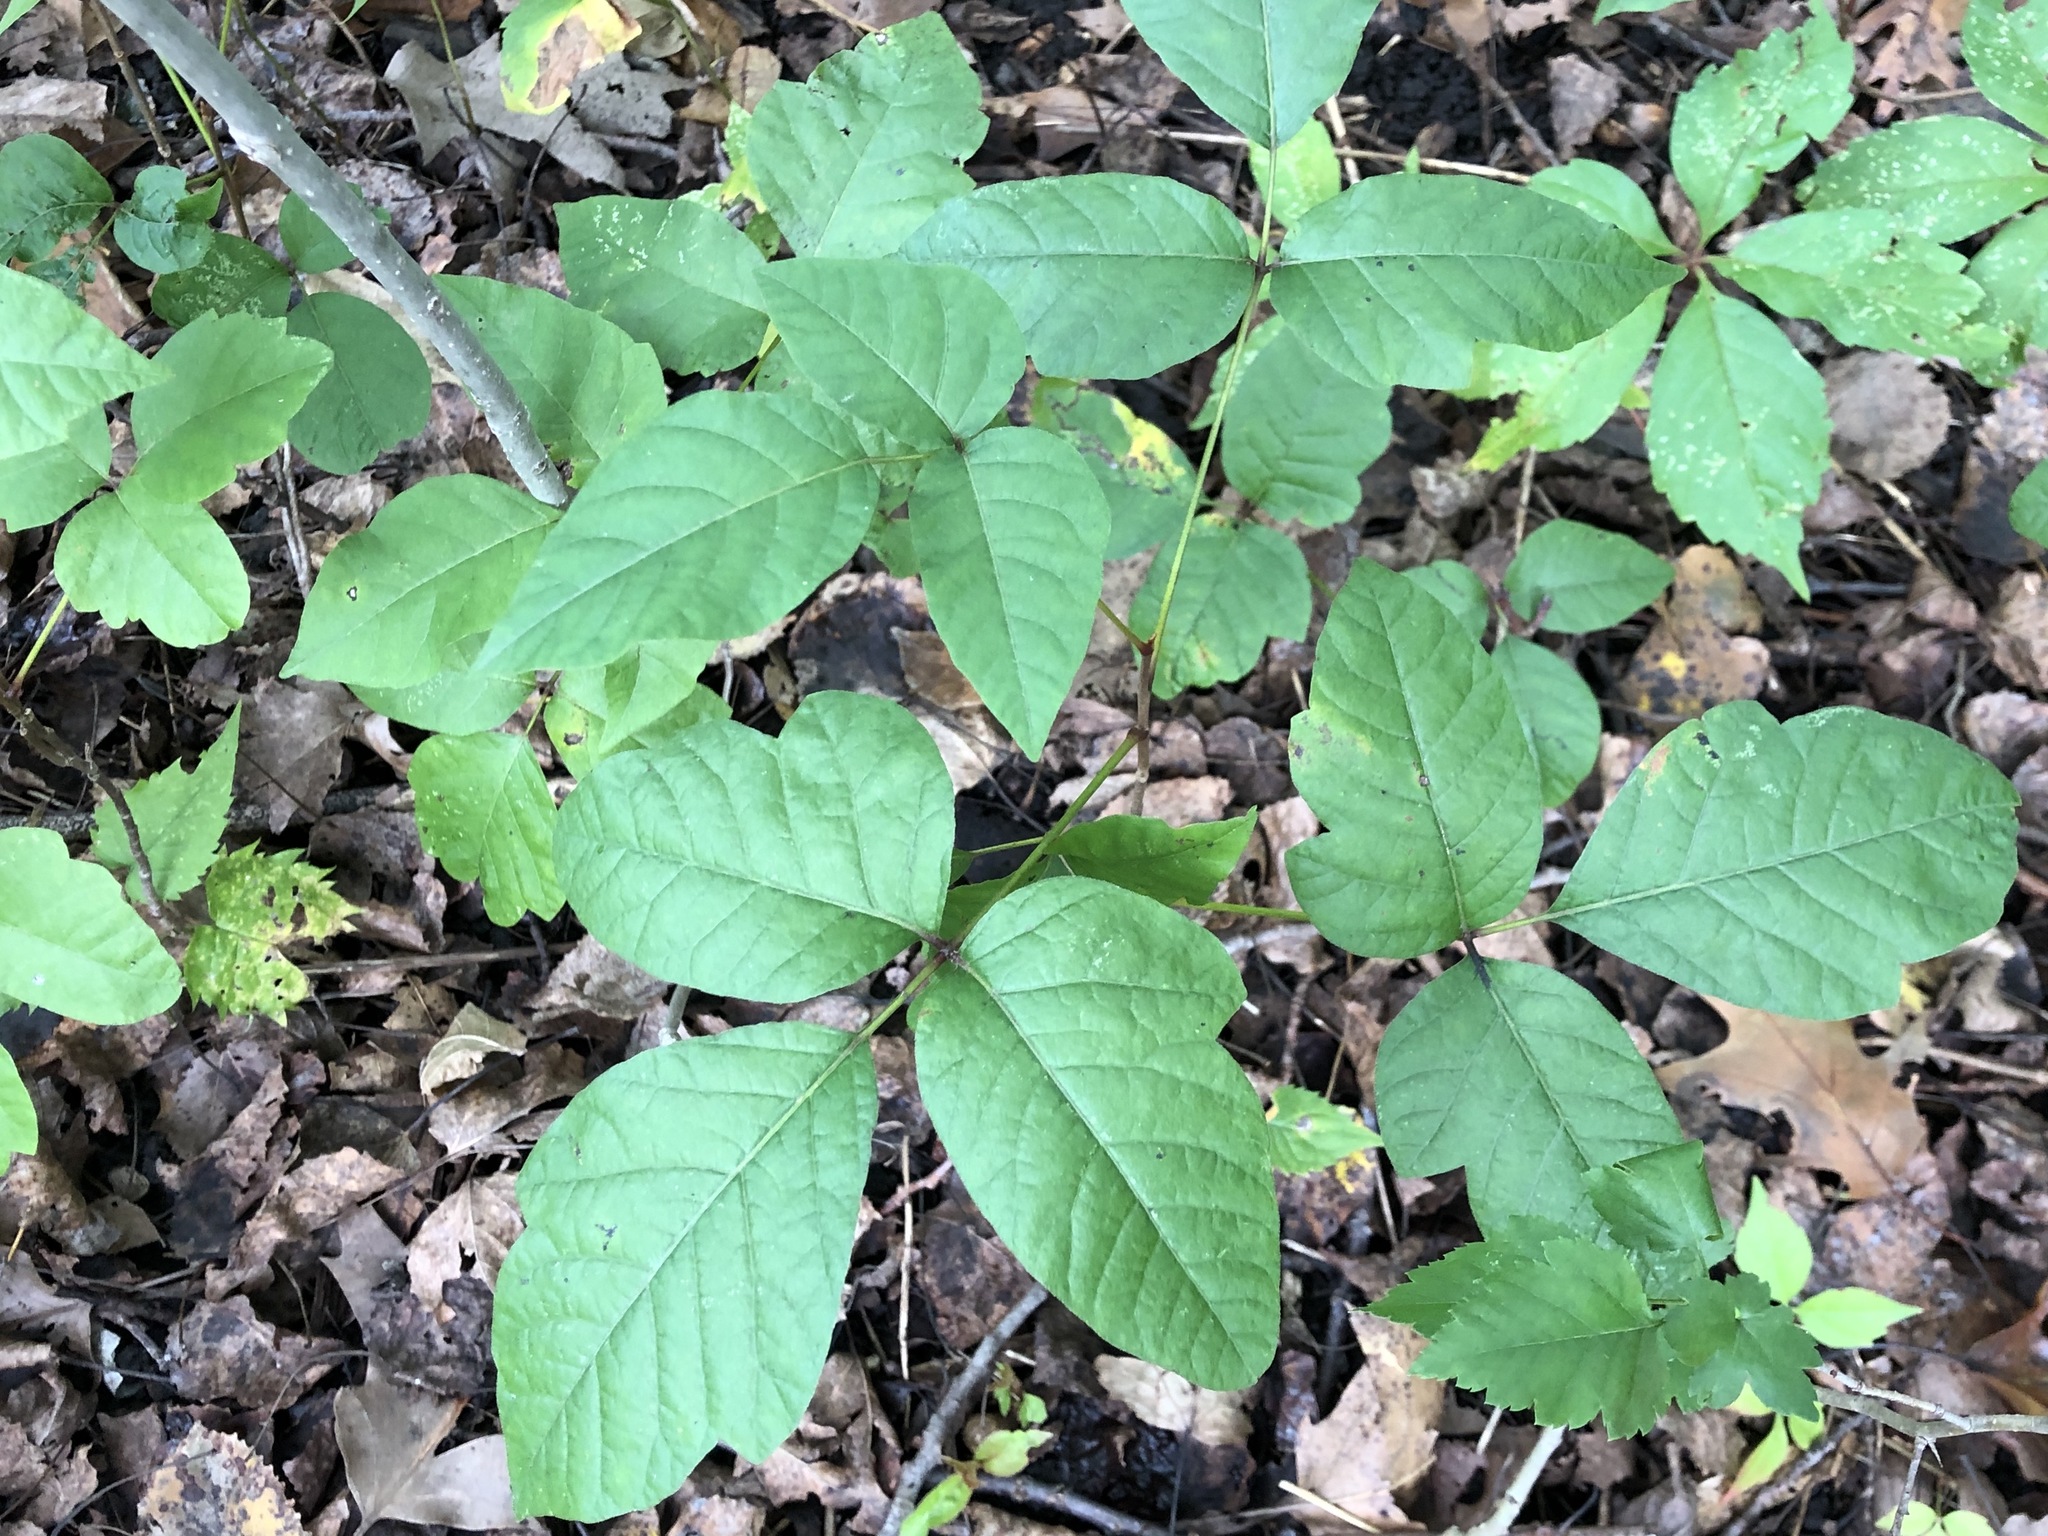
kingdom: Plantae
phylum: Tracheophyta
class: Magnoliopsida
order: Sapindales
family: Anacardiaceae
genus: Toxicodendron
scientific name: Toxicodendron radicans
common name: Poison ivy
